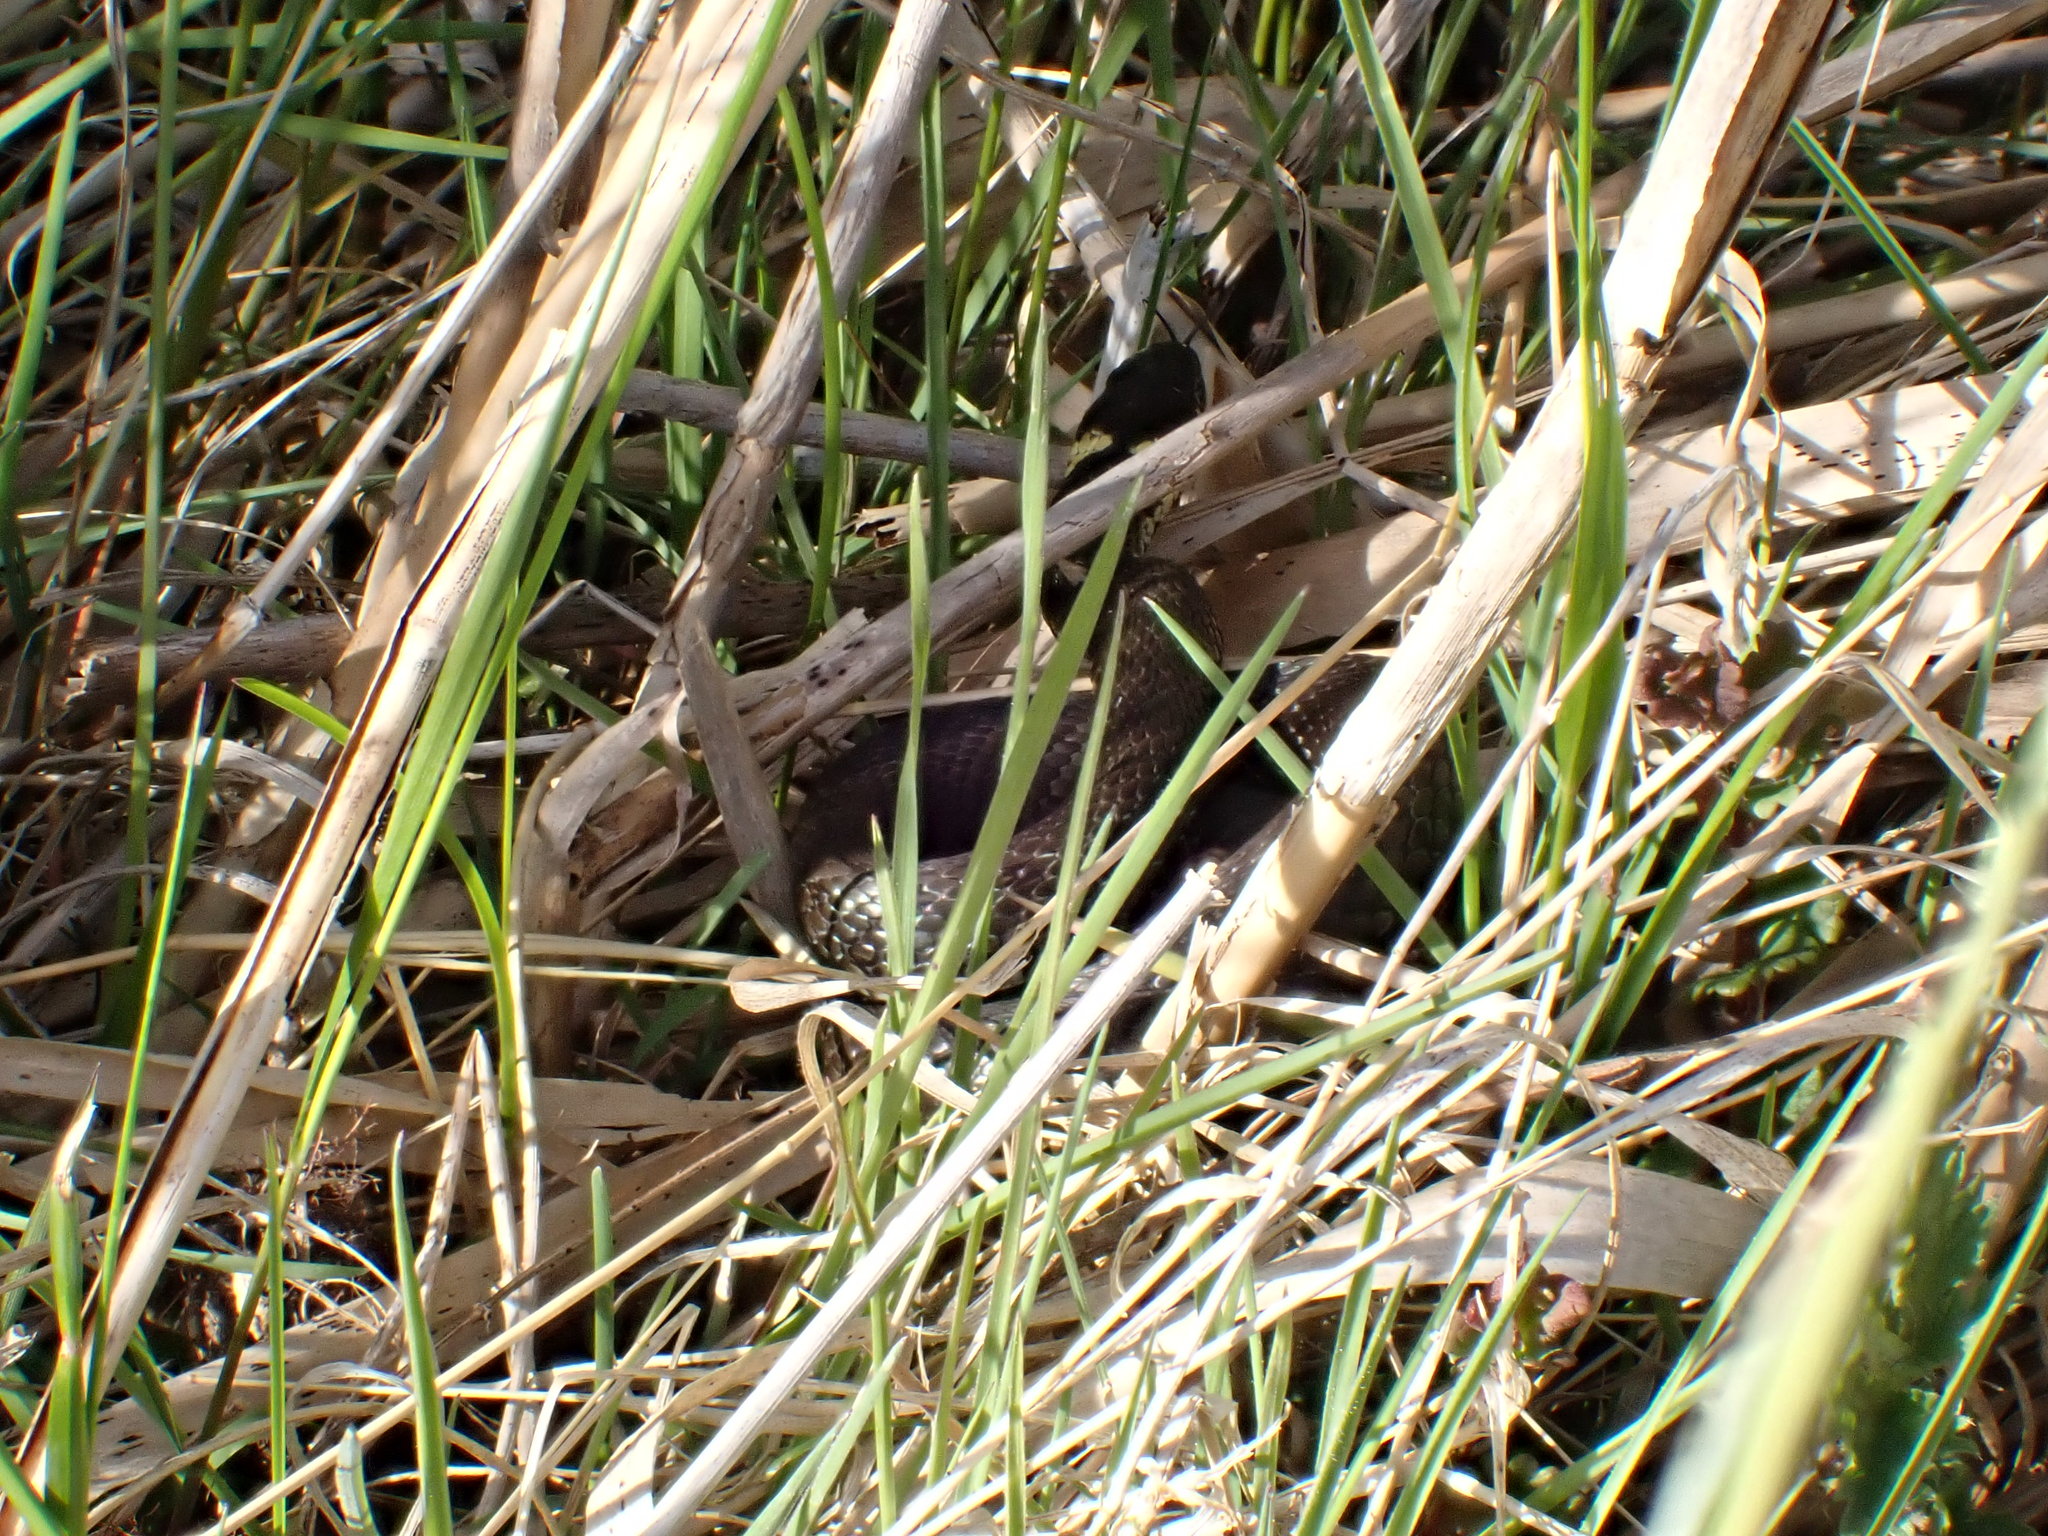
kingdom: Animalia
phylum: Chordata
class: Squamata
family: Colubridae
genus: Natrix
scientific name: Natrix natrix
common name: Grass snake
